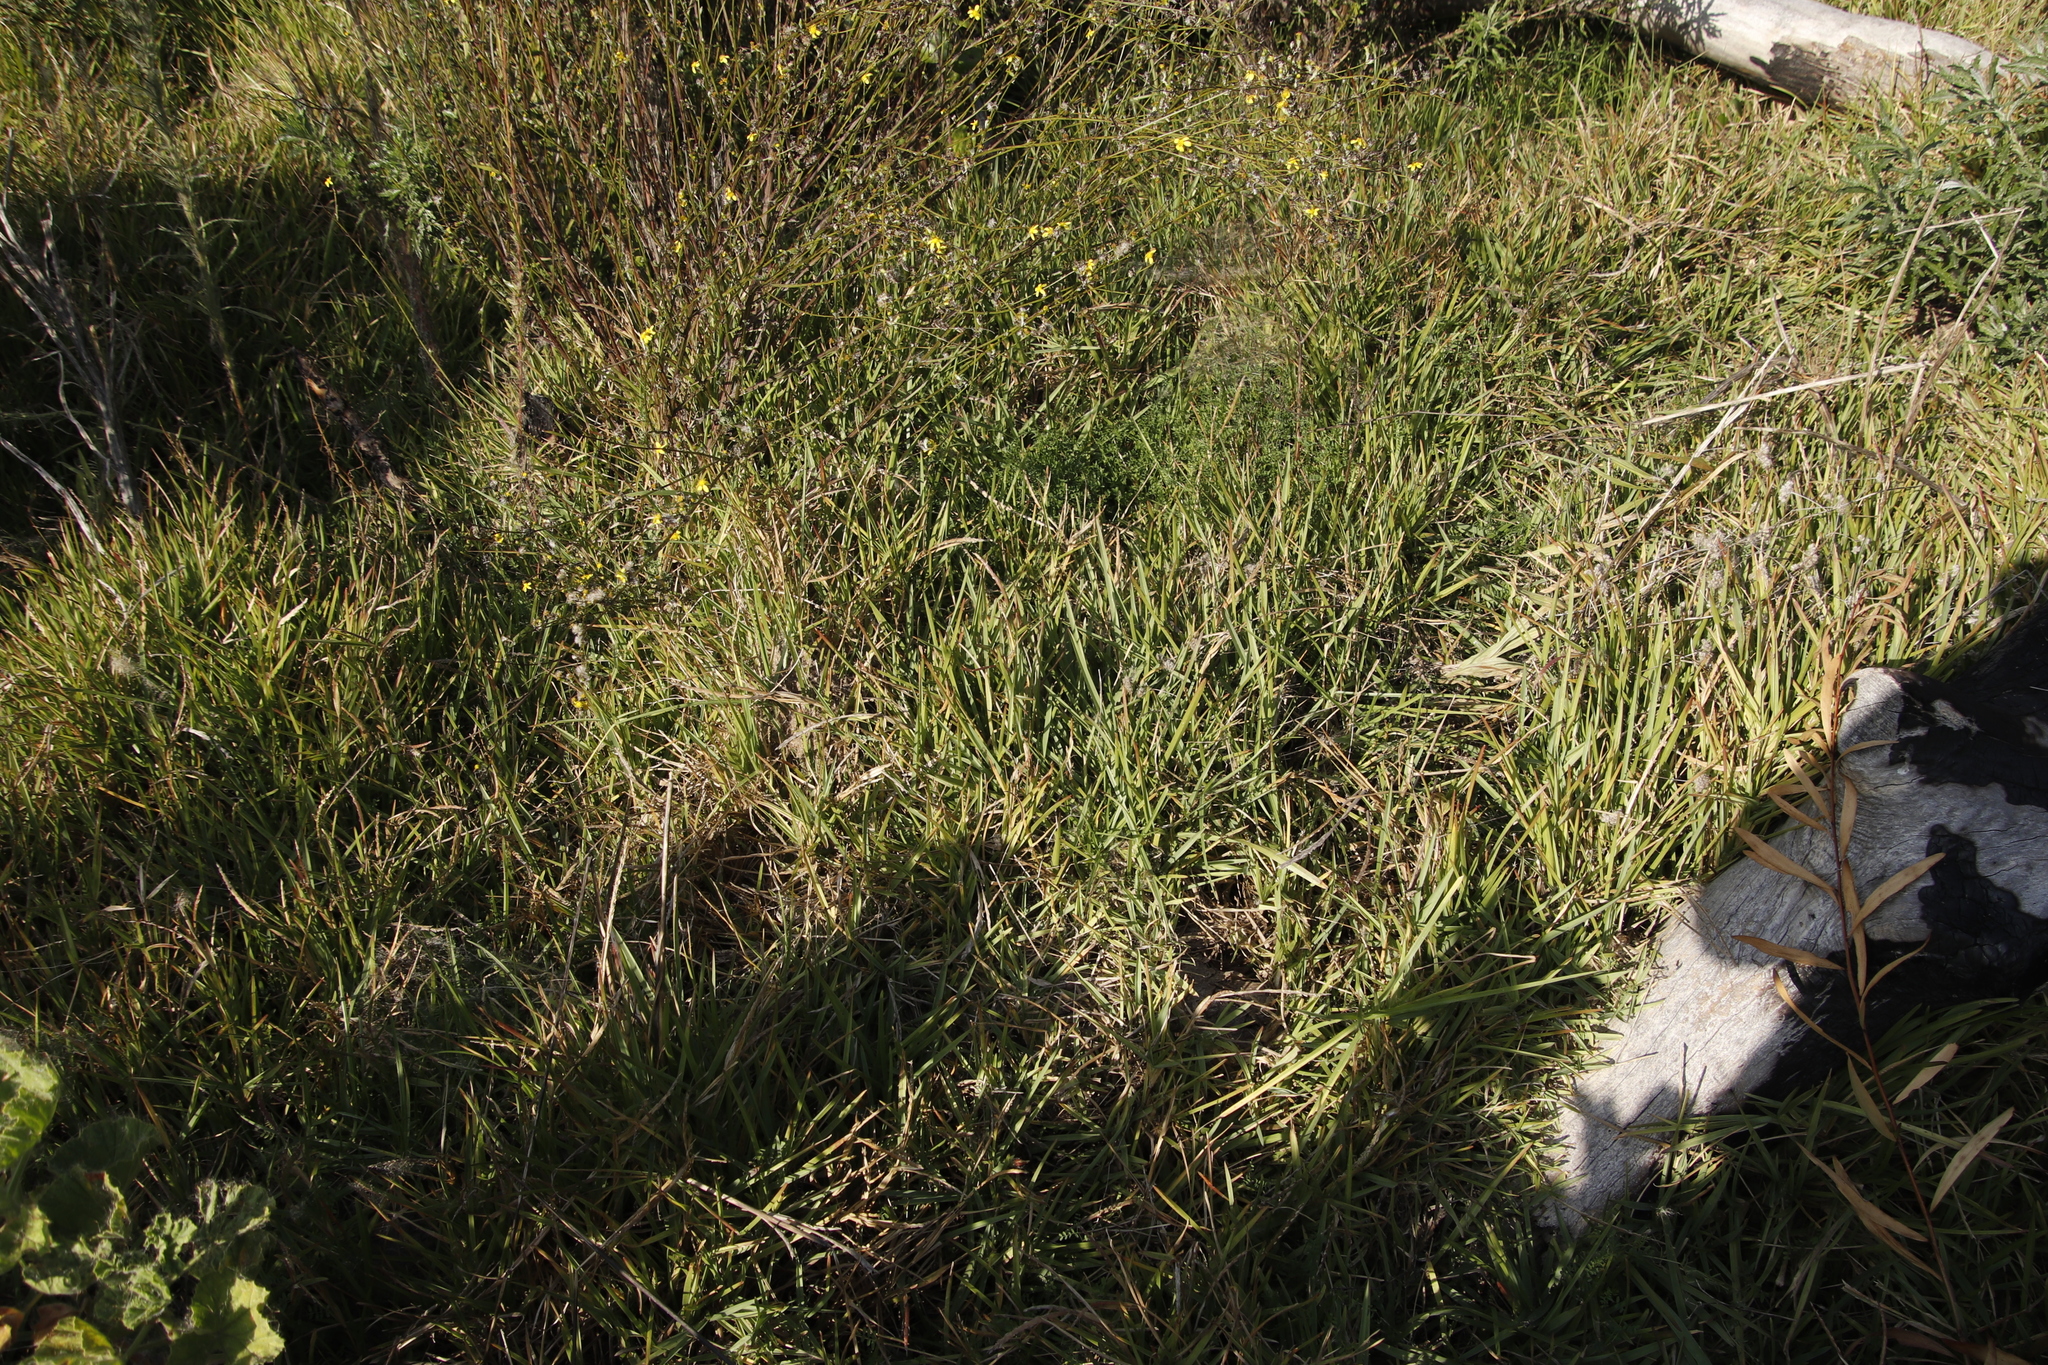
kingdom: Plantae
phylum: Tracheophyta
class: Liliopsida
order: Poales
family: Poaceae
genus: Stenotaphrum
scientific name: Stenotaphrum secundatum
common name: St. augustine grass
